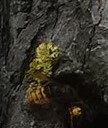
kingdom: Animalia
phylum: Arthropoda
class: Insecta
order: Hymenoptera
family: Vespidae
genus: Vespa
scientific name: Vespa crabro
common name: Hornet
